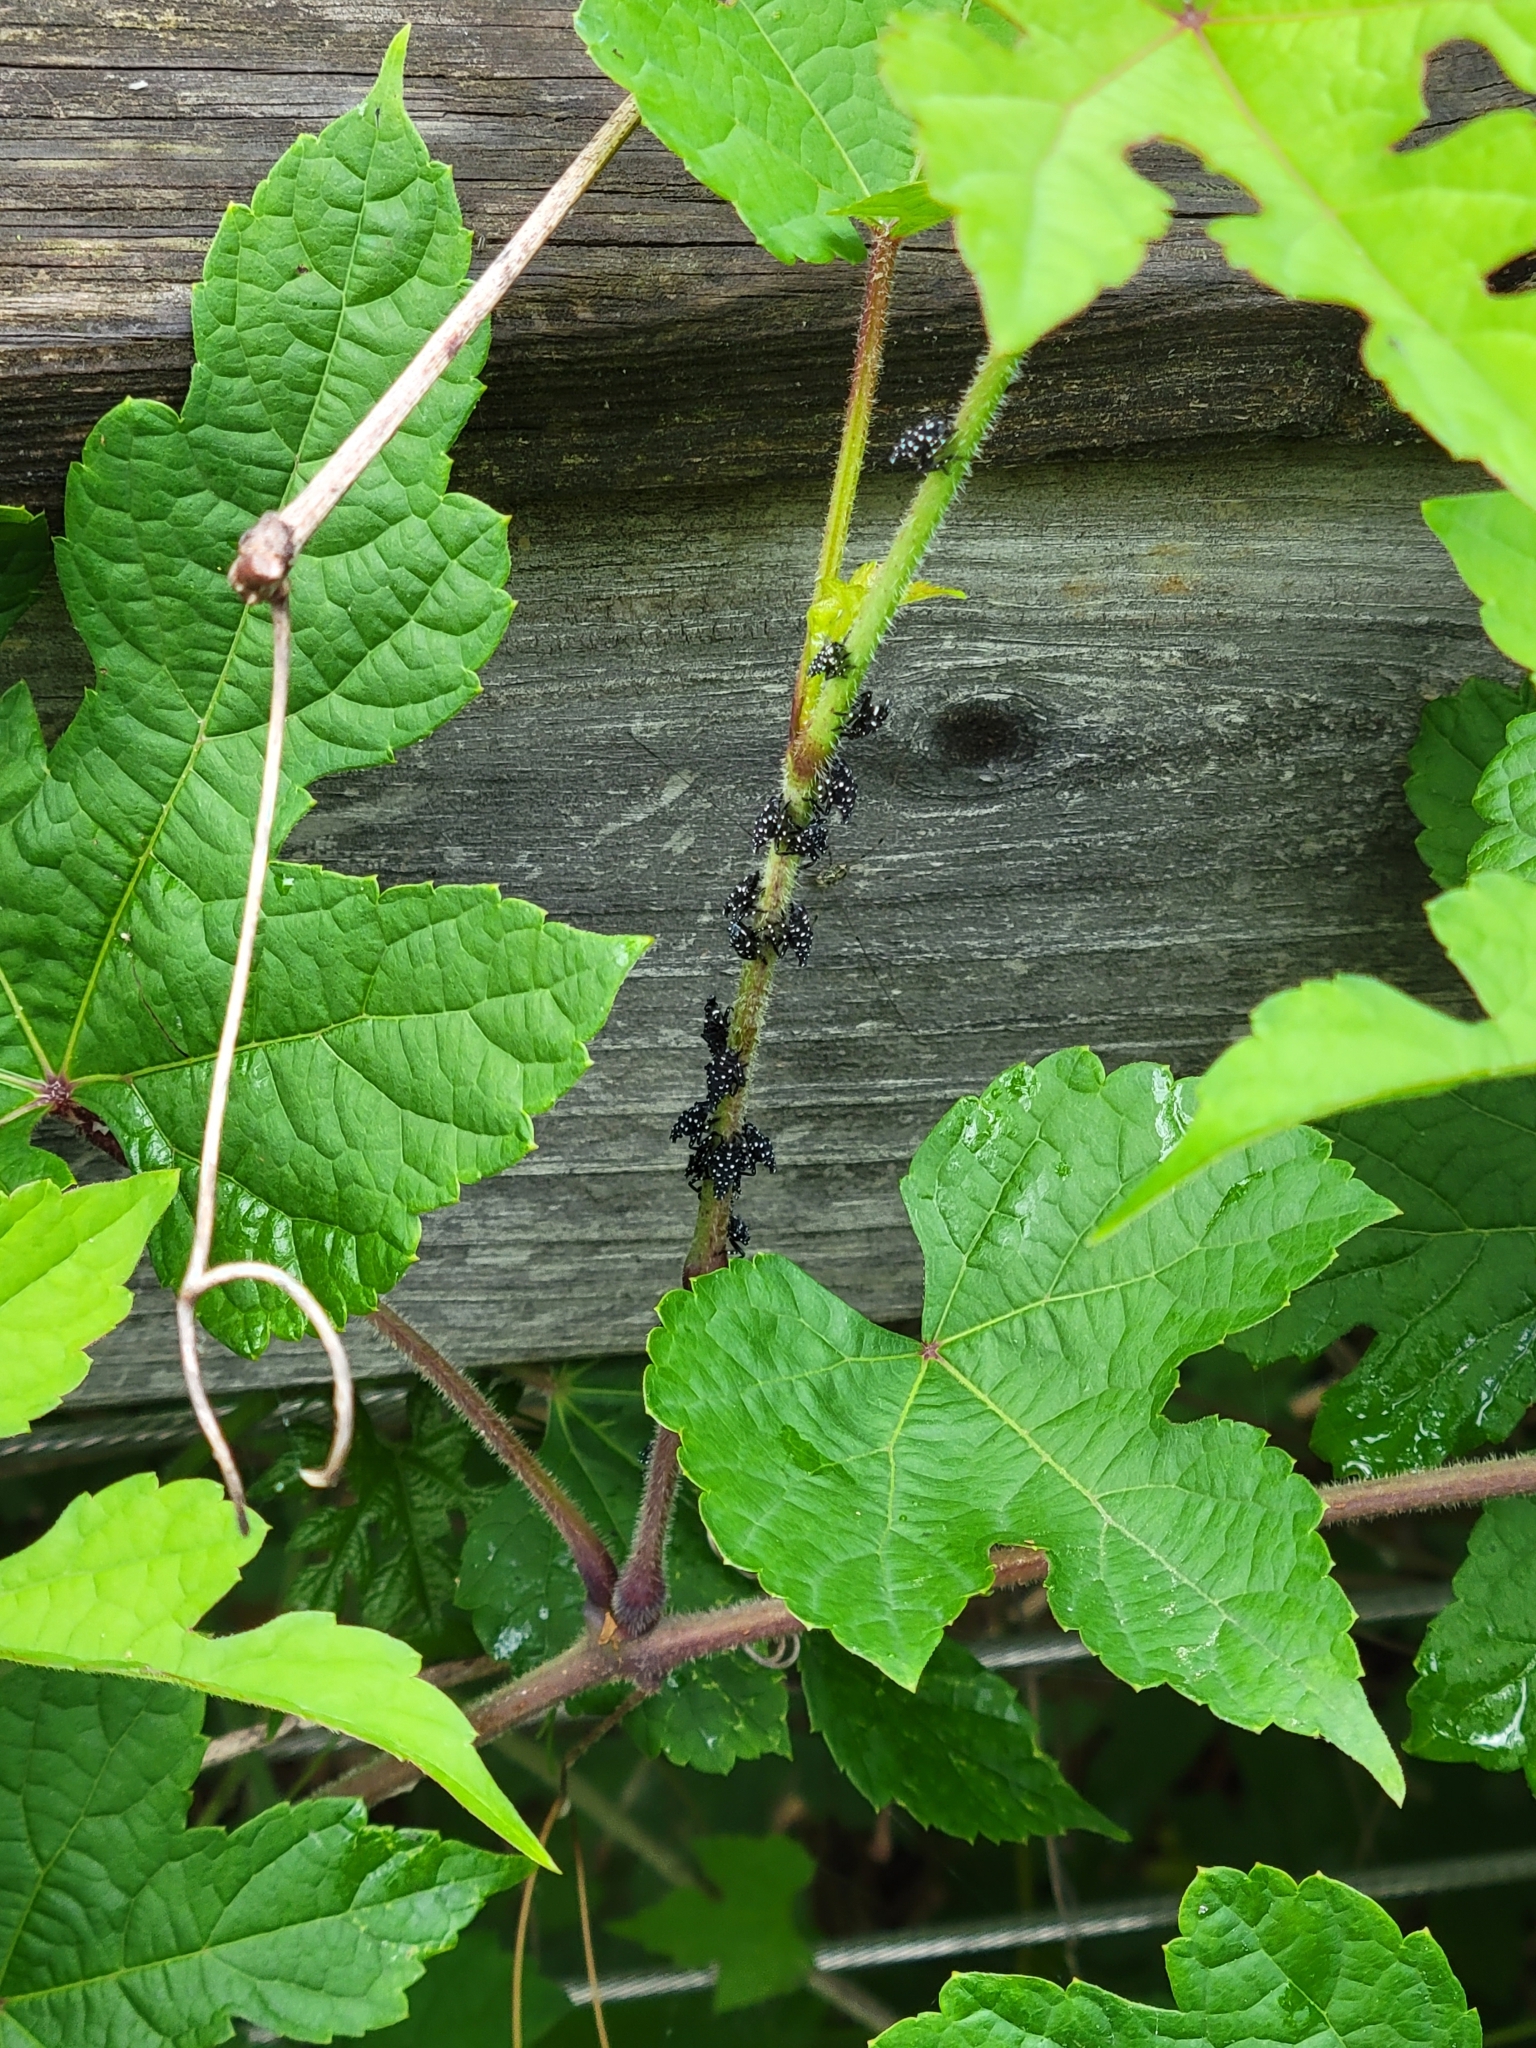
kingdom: Animalia
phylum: Arthropoda
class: Insecta
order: Hemiptera
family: Fulgoridae
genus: Lycorma
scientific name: Lycorma delicatula
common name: Spotted lanternfly
